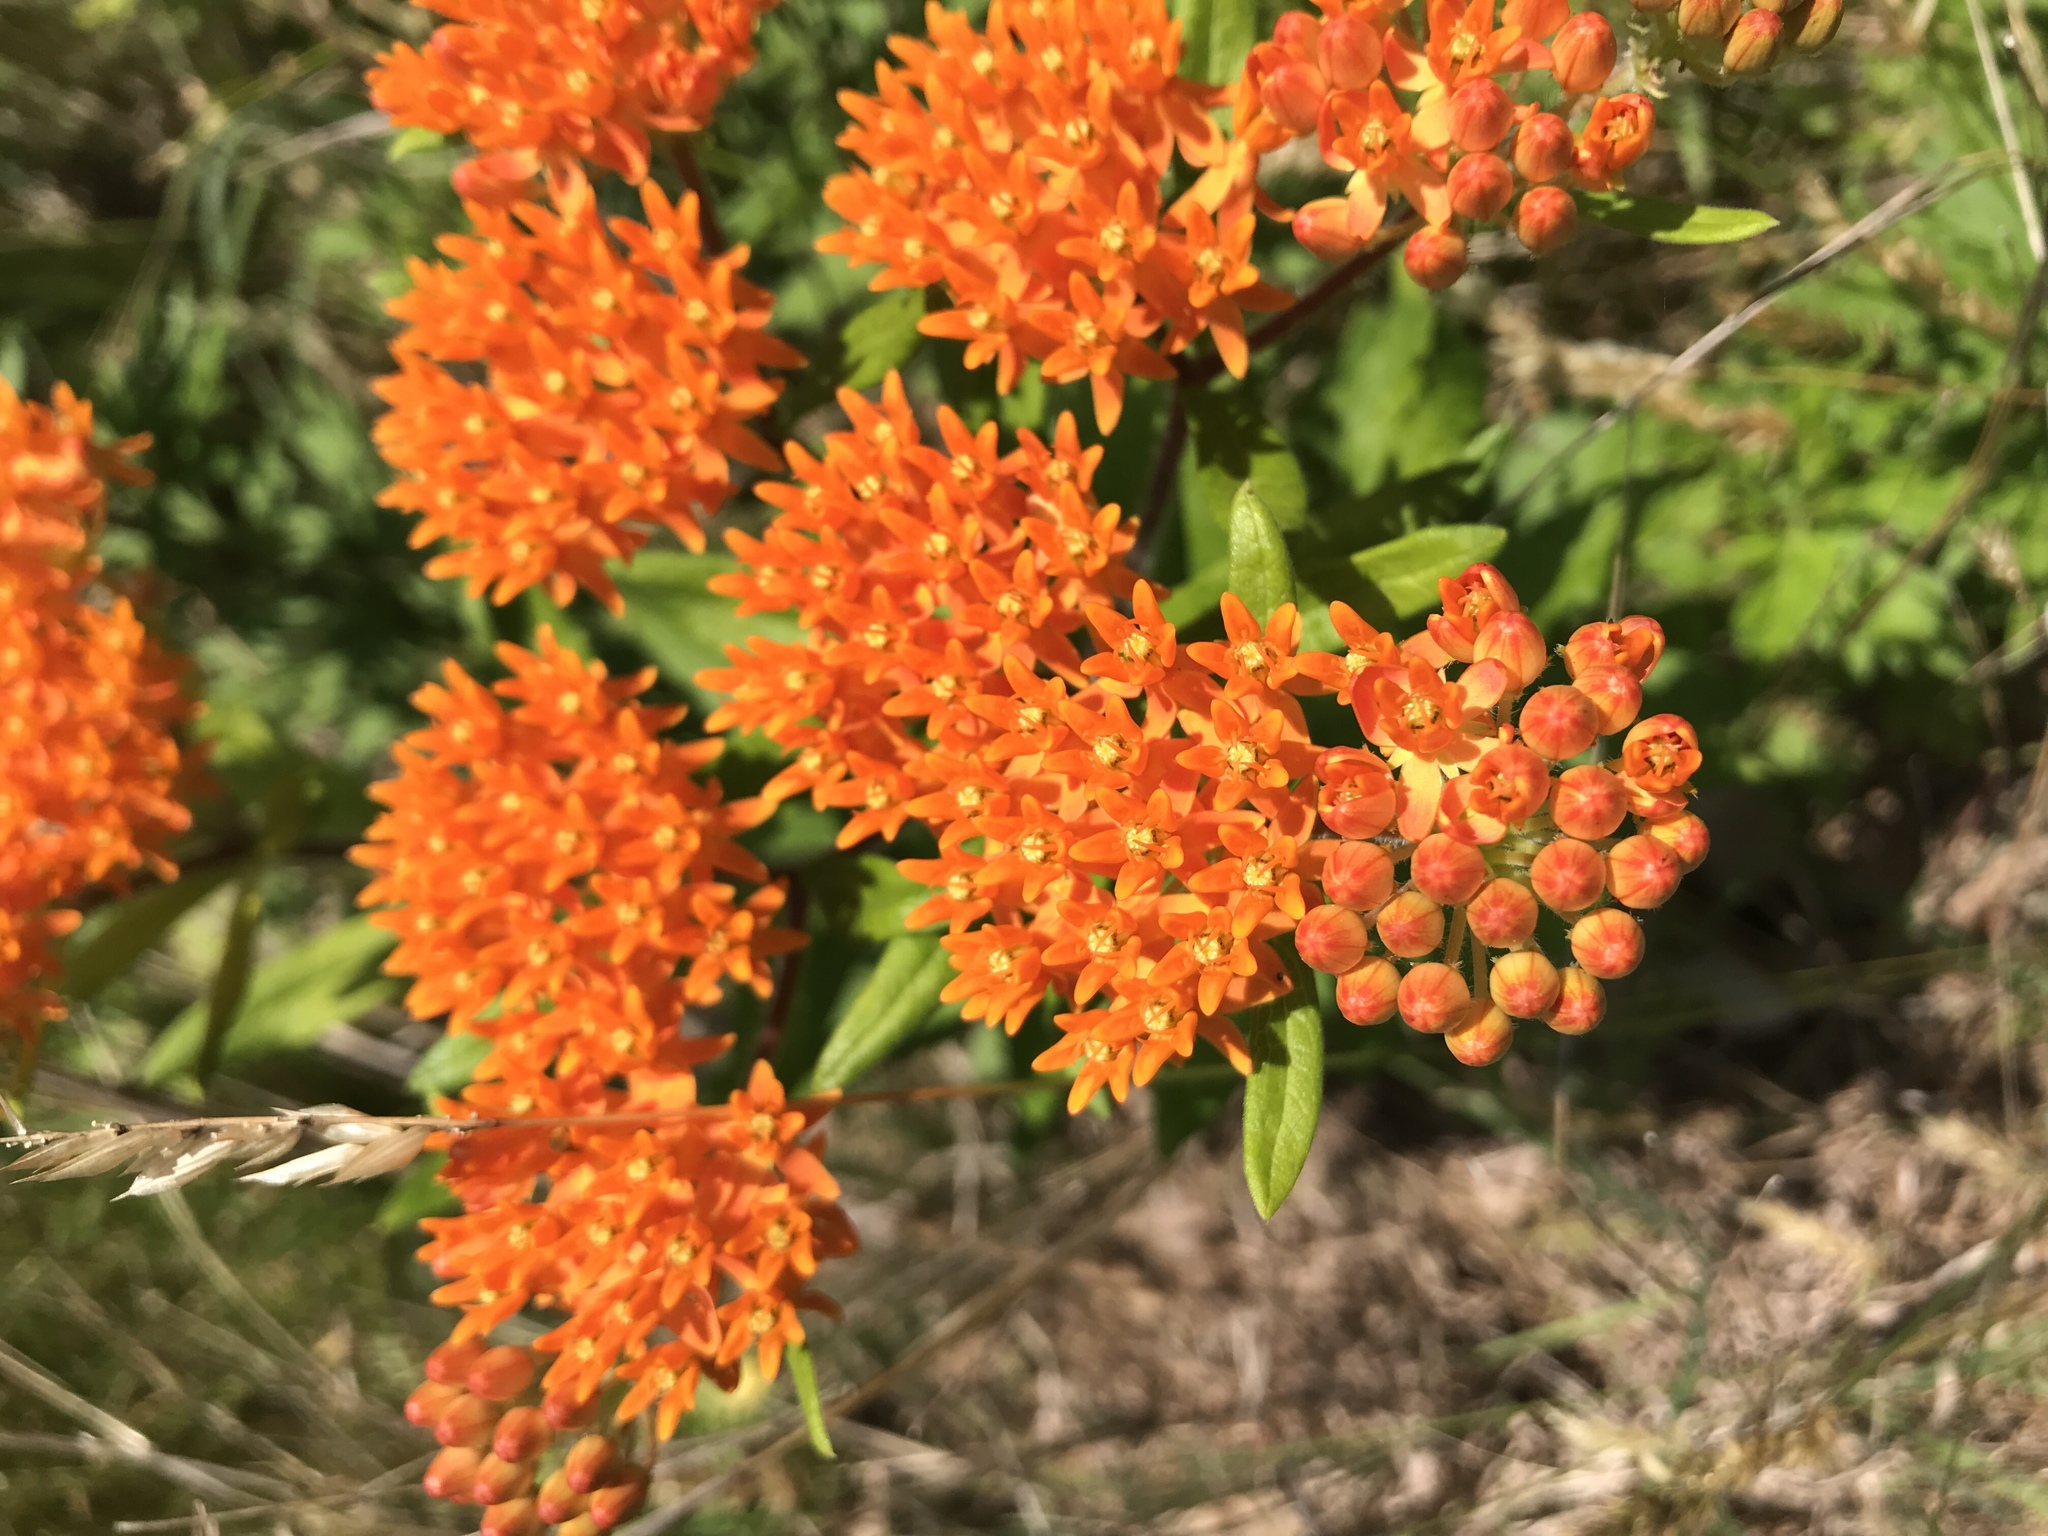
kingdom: Plantae
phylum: Tracheophyta
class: Magnoliopsida
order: Gentianales
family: Apocynaceae
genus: Asclepias
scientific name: Asclepias tuberosa
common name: Butterfly milkweed
